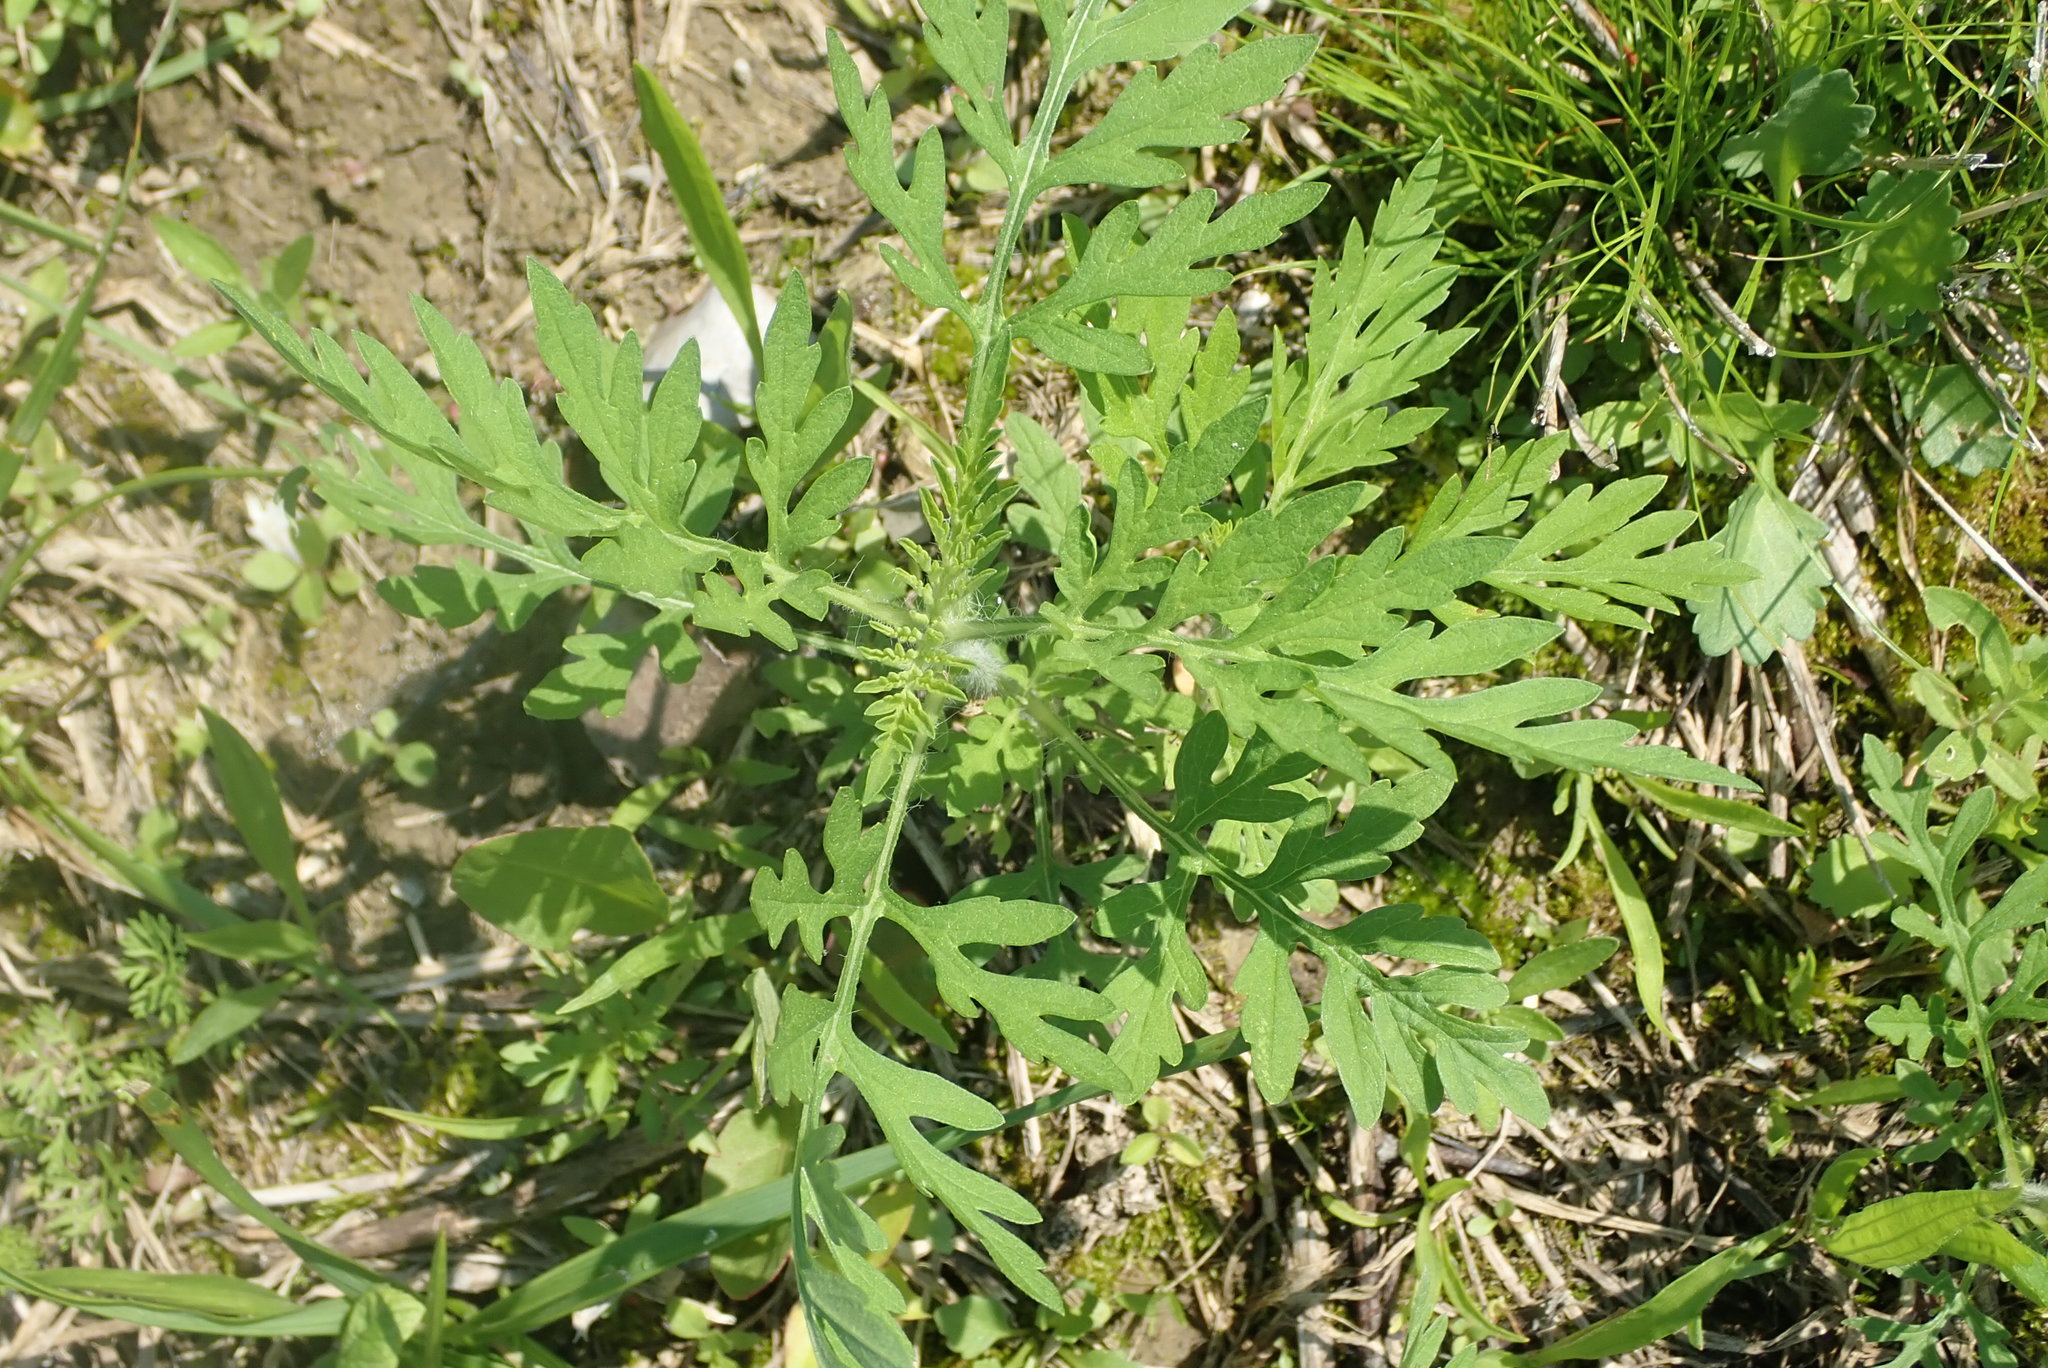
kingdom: Plantae
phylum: Tracheophyta
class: Magnoliopsida
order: Asterales
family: Asteraceae
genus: Ambrosia
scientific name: Ambrosia artemisiifolia
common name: Annual ragweed
